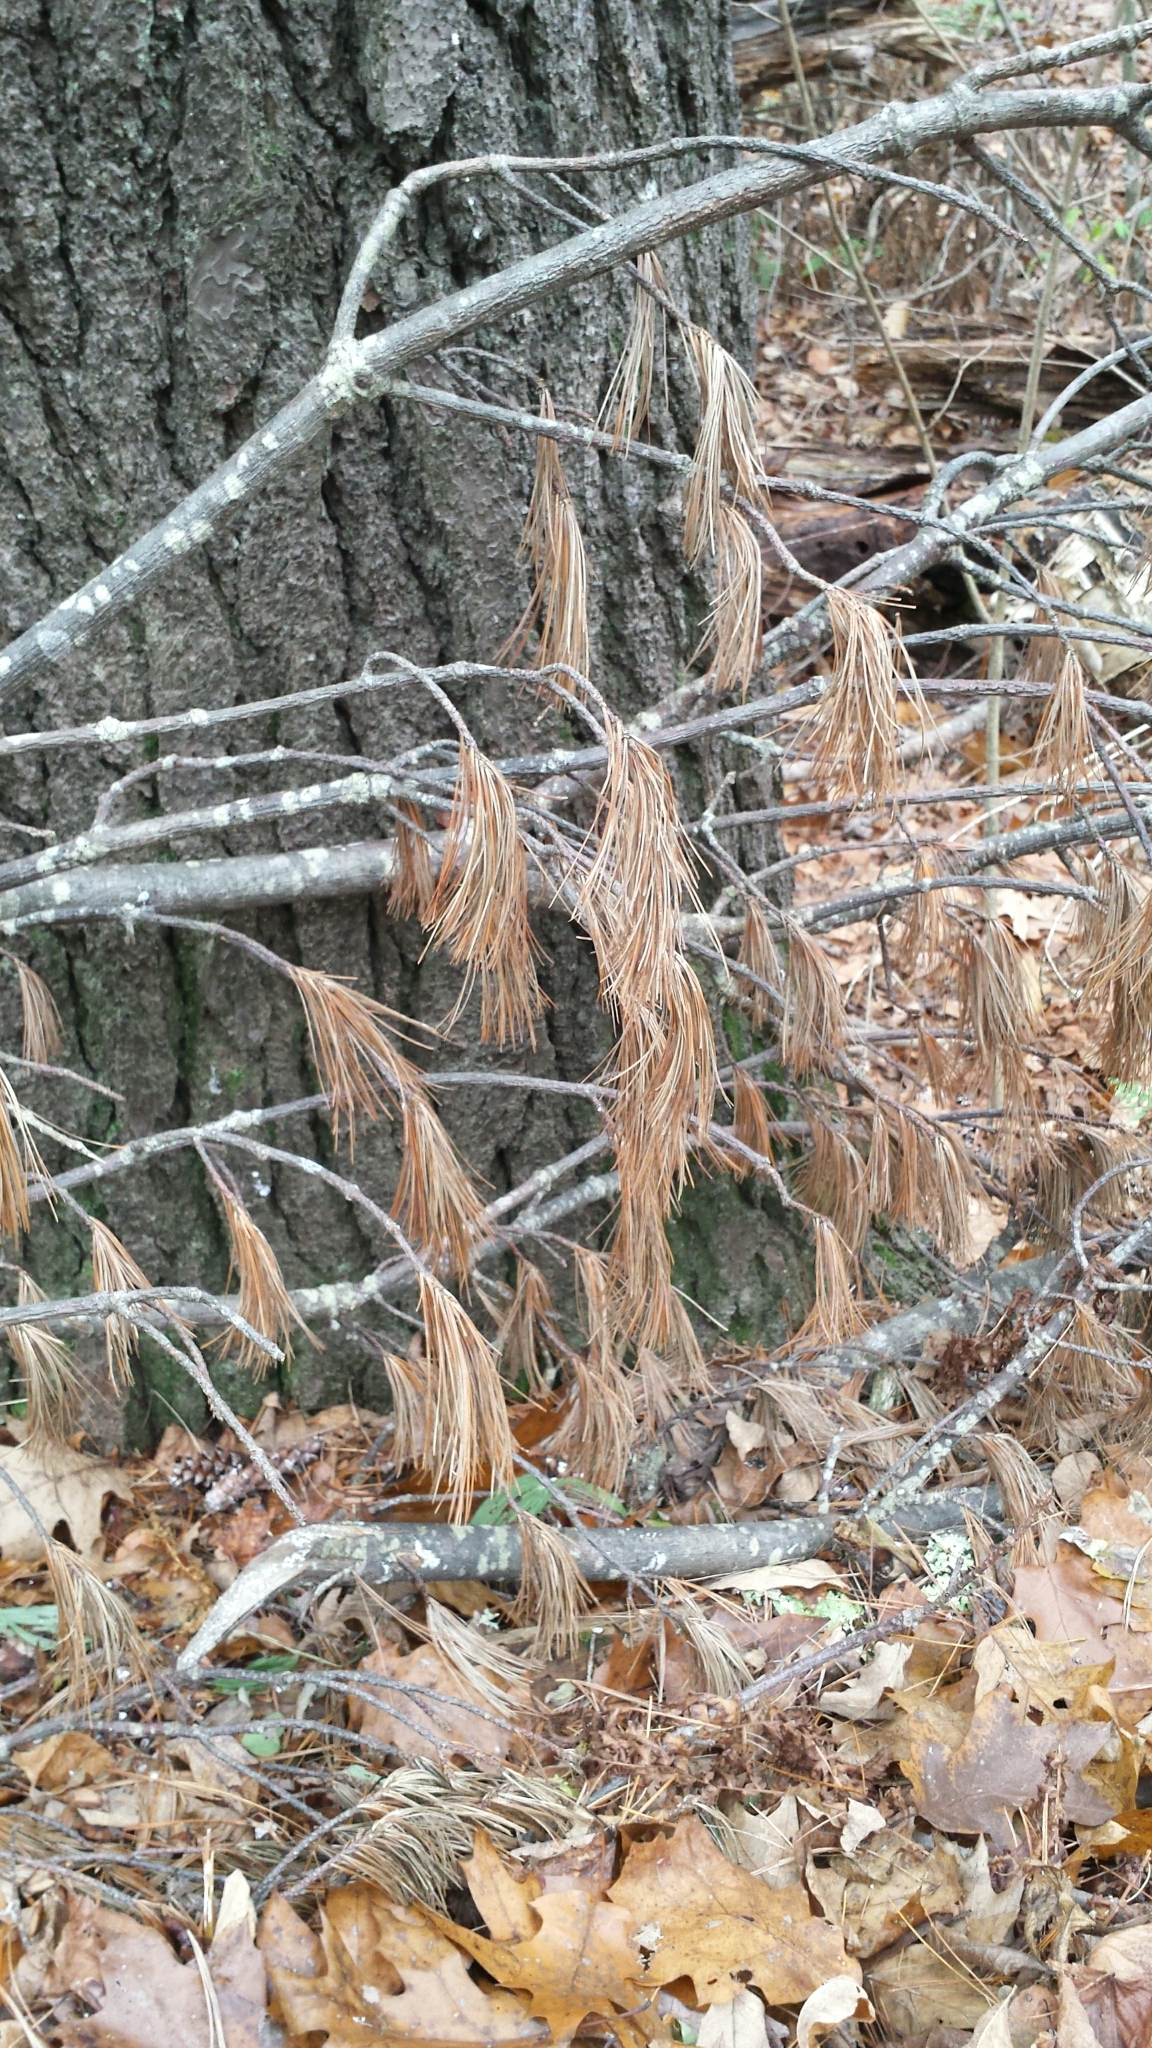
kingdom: Plantae
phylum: Tracheophyta
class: Pinopsida
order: Pinales
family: Pinaceae
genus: Pinus
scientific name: Pinus strobus
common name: Weymouth pine
